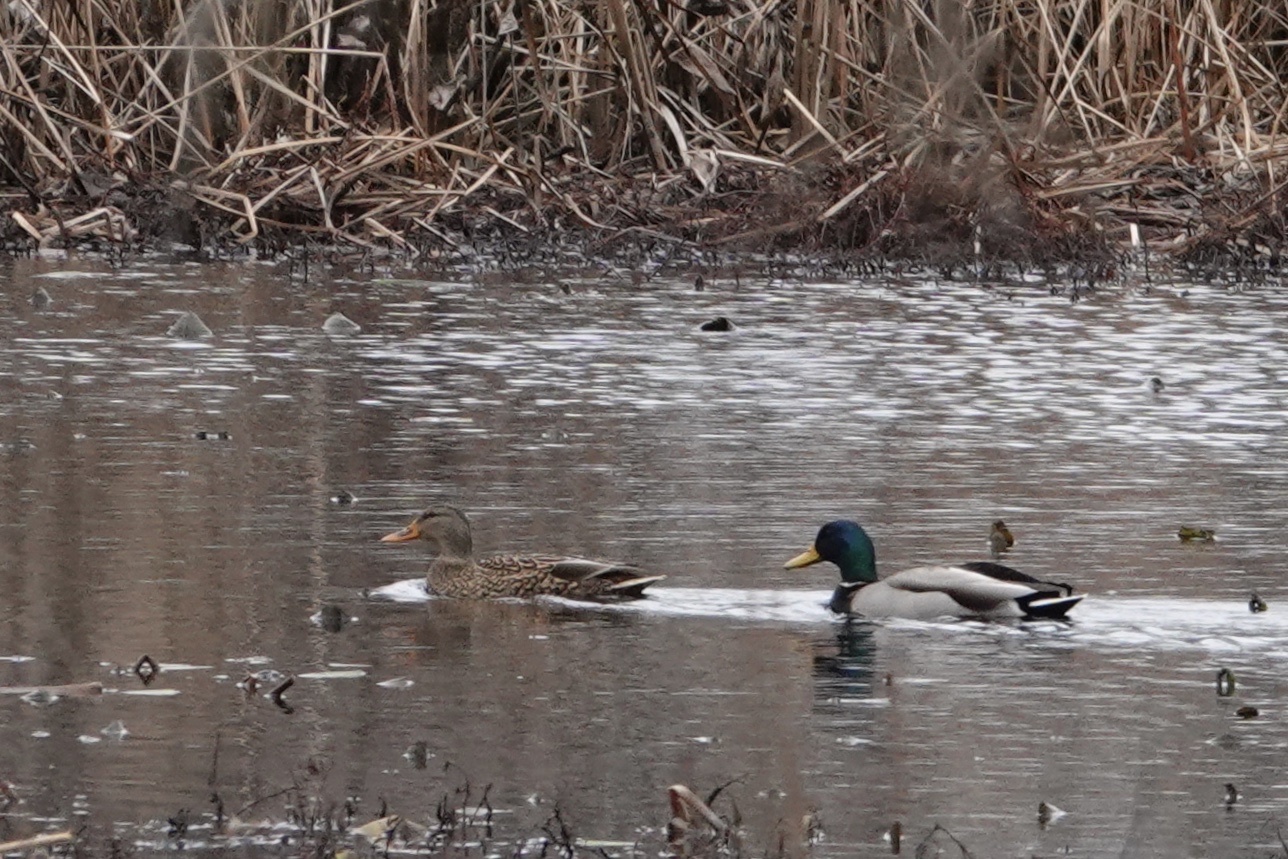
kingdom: Animalia
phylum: Chordata
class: Aves
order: Anseriformes
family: Anatidae
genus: Anas
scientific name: Anas platyrhynchos
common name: Mallard
